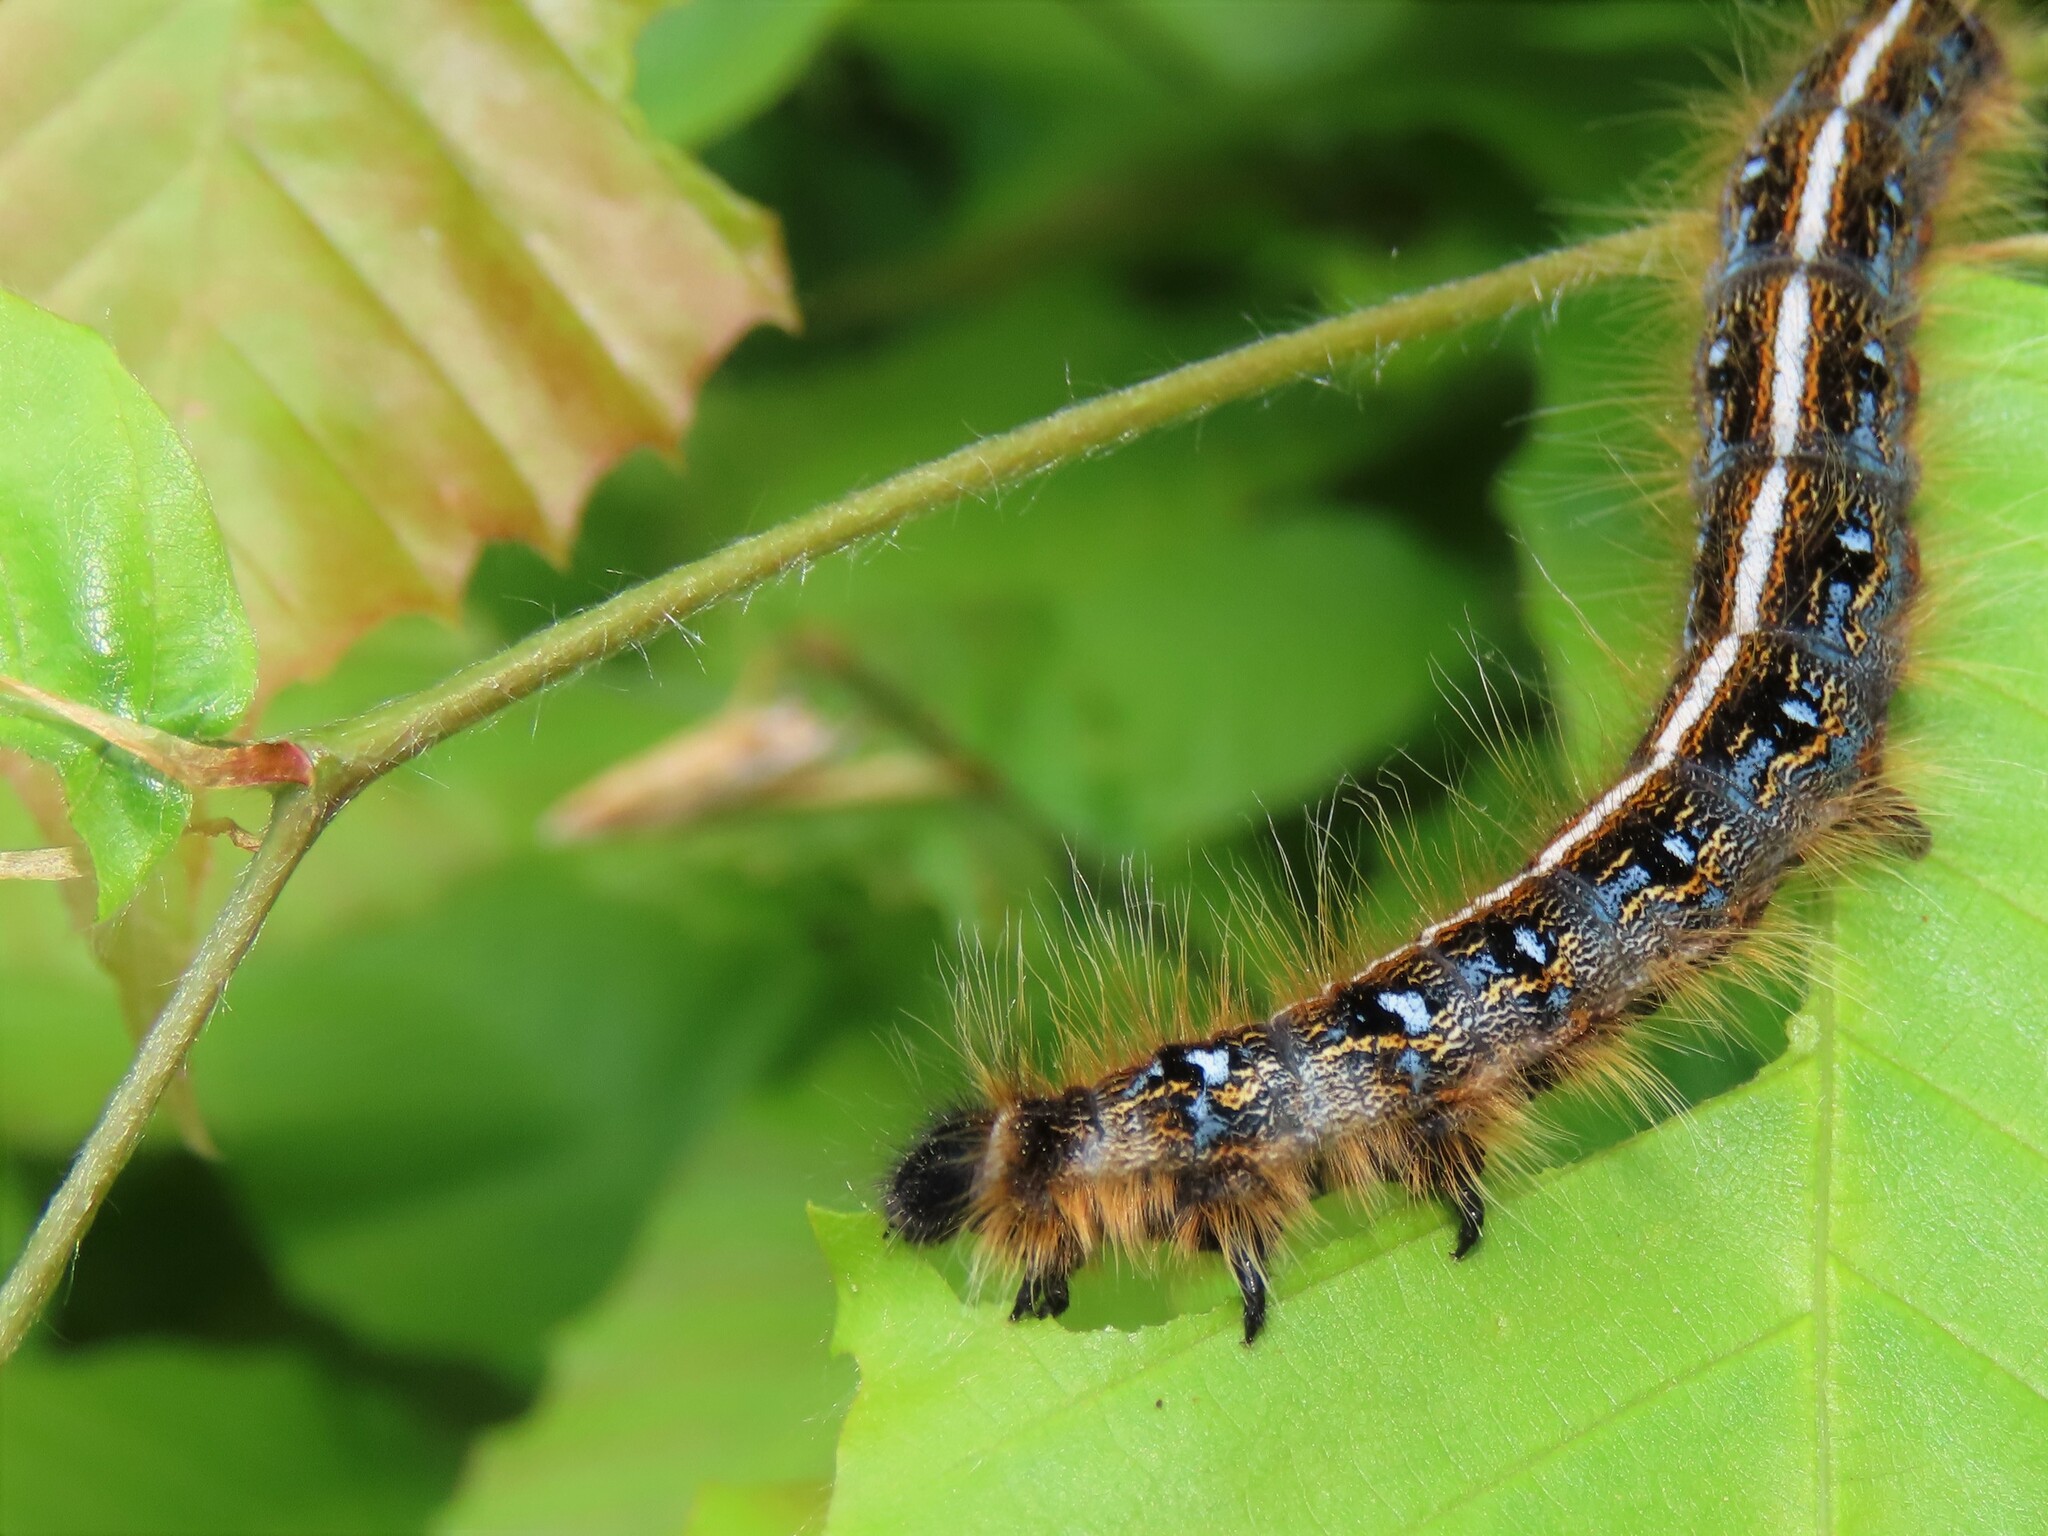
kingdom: Animalia
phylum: Arthropoda
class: Insecta
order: Lepidoptera
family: Lasiocampidae
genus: Malacosoma
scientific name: Malacosoma americana
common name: Eastern tent caterpillar moth
